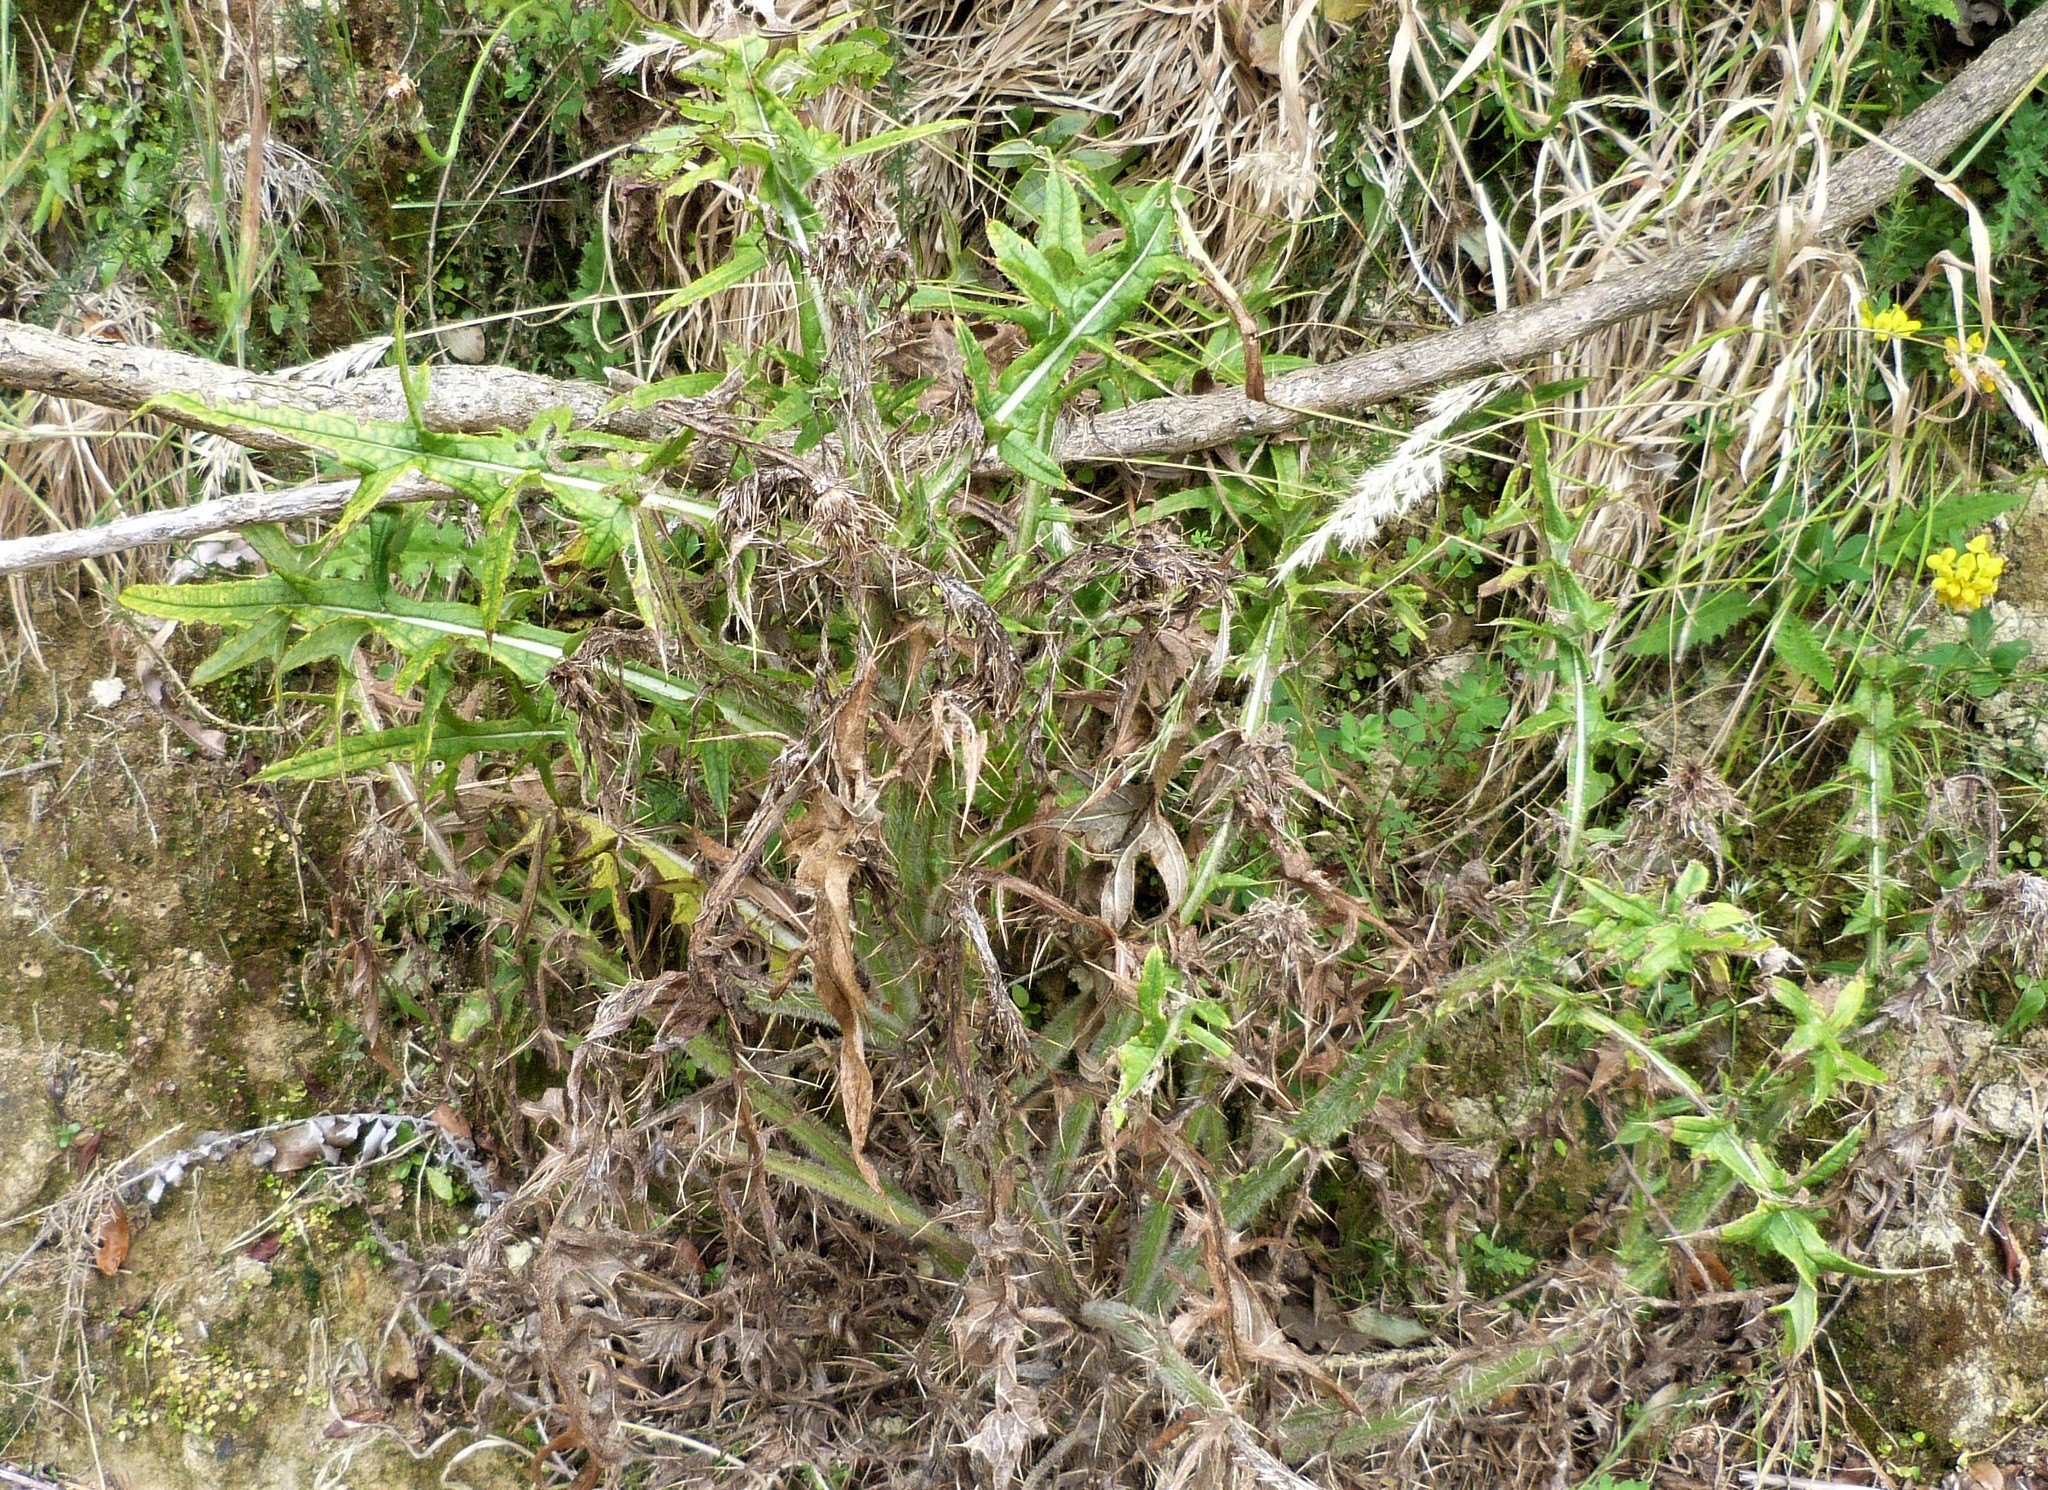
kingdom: Plantae
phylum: Tracheophyta
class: Magnoliopsida
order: Asterales
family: Asteraceae
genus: Cirsium
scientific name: Cirsium vulgare
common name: Bull thistle
